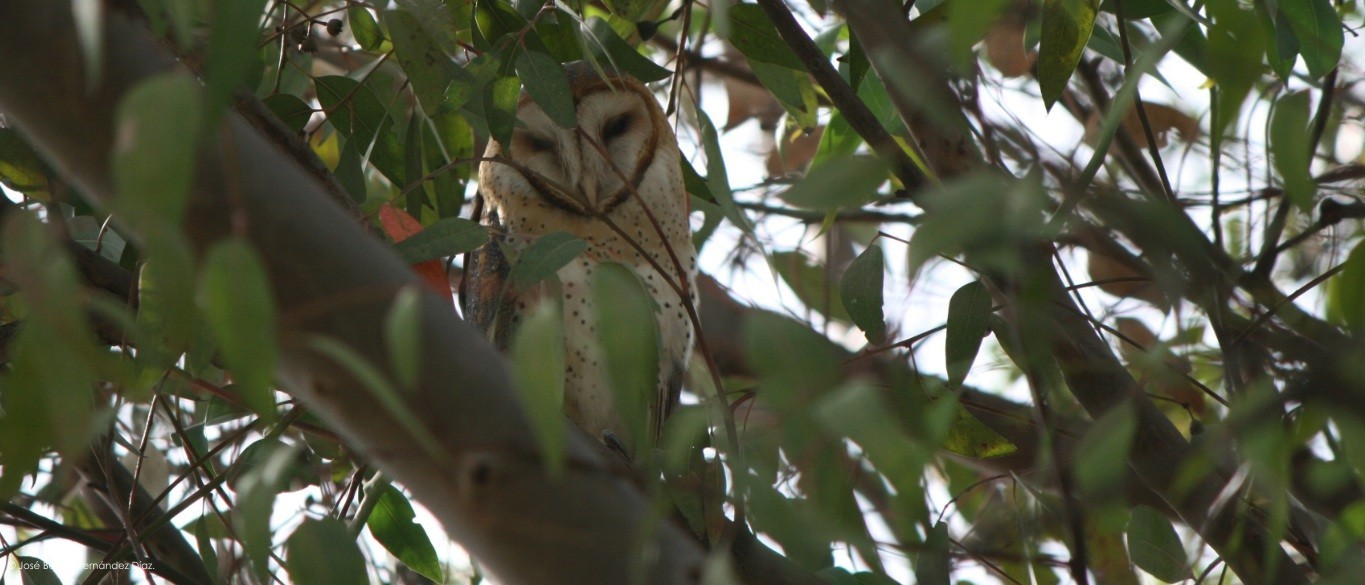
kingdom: Animalia
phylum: Chordata
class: Aves
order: Strigiformes
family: Tytonidae
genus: Tyto
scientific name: Tyto alba
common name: Barn owl
